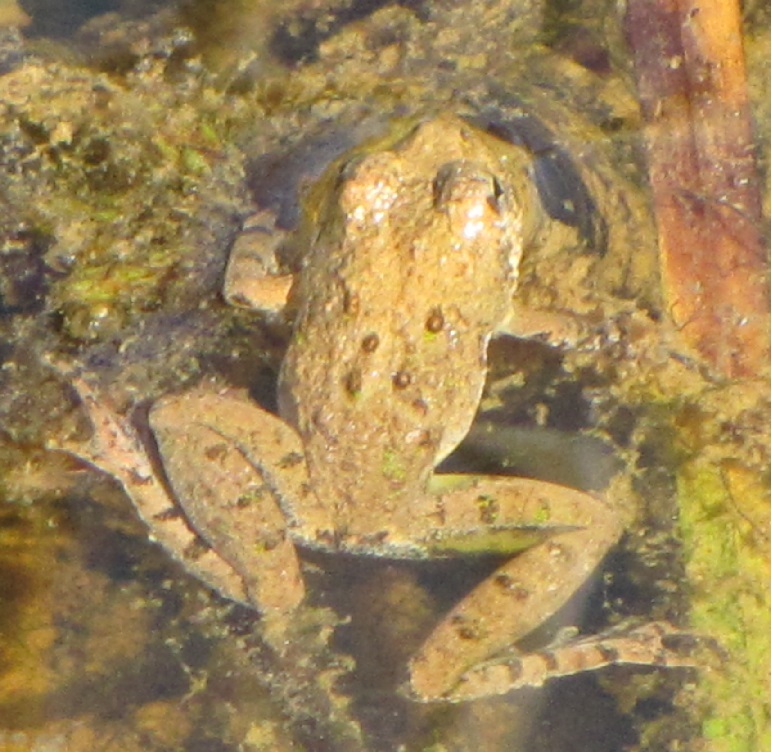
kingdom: Animalia
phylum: Chordata
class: Amphibia
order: Anura
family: Hylidae
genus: Acris
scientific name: Acris crepitans
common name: Northern cricket frog
